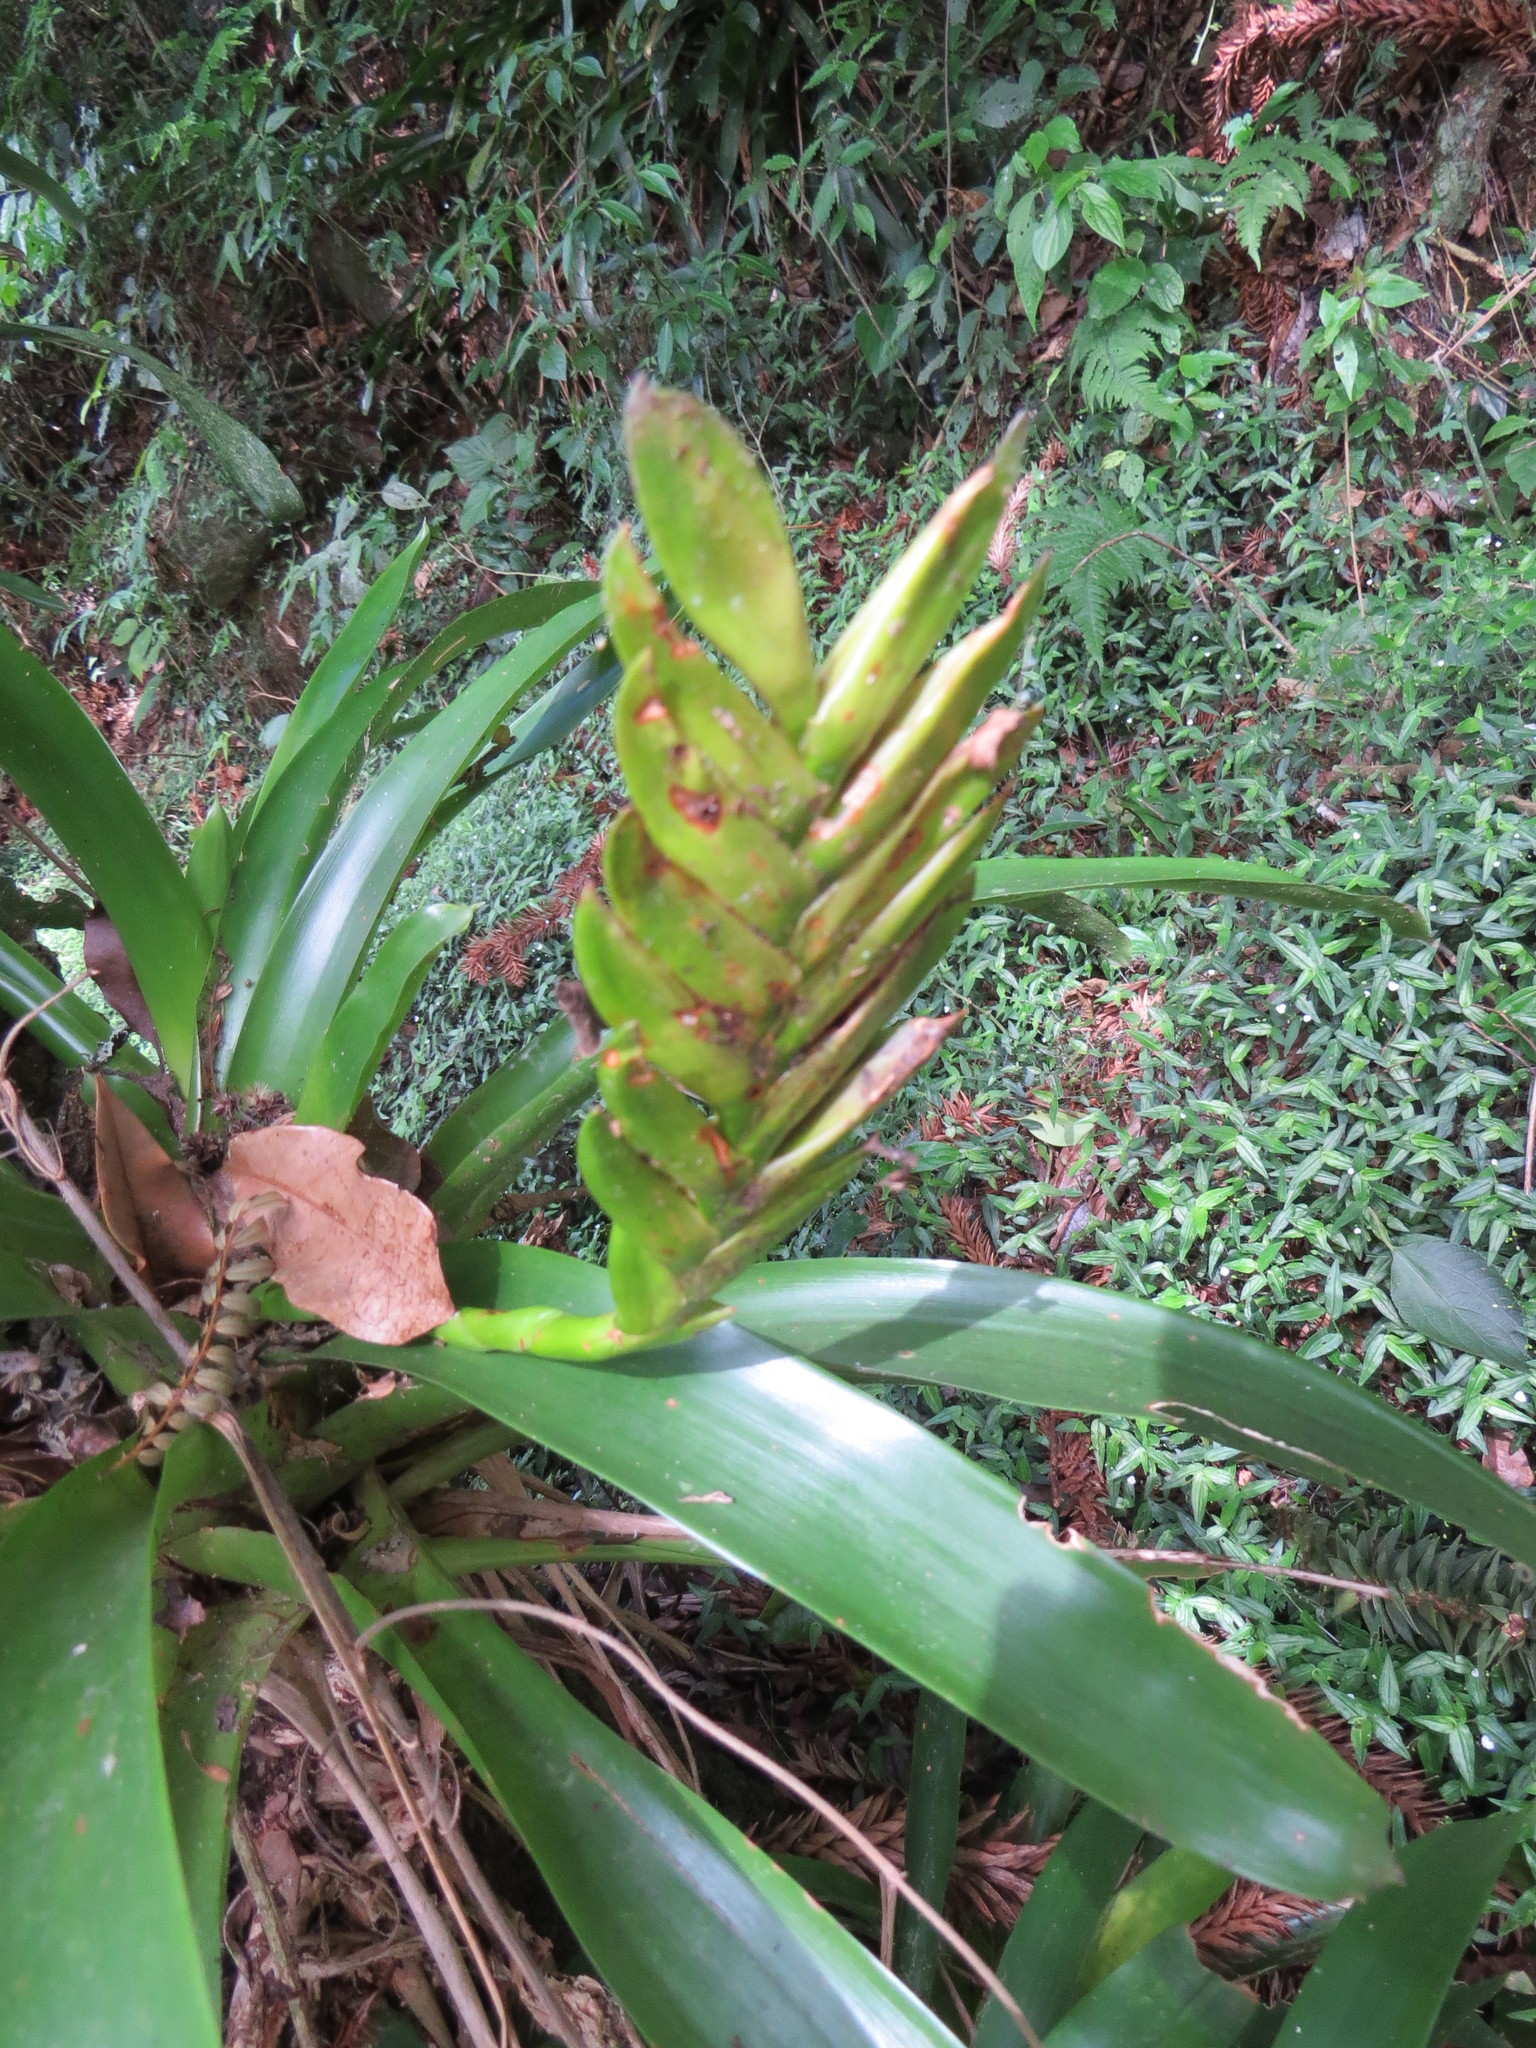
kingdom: Plantae
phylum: Tracheophyta
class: Liliopsida
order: Poales
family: Bromeliaceae
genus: Vriesea
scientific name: Vriesea paraibica
